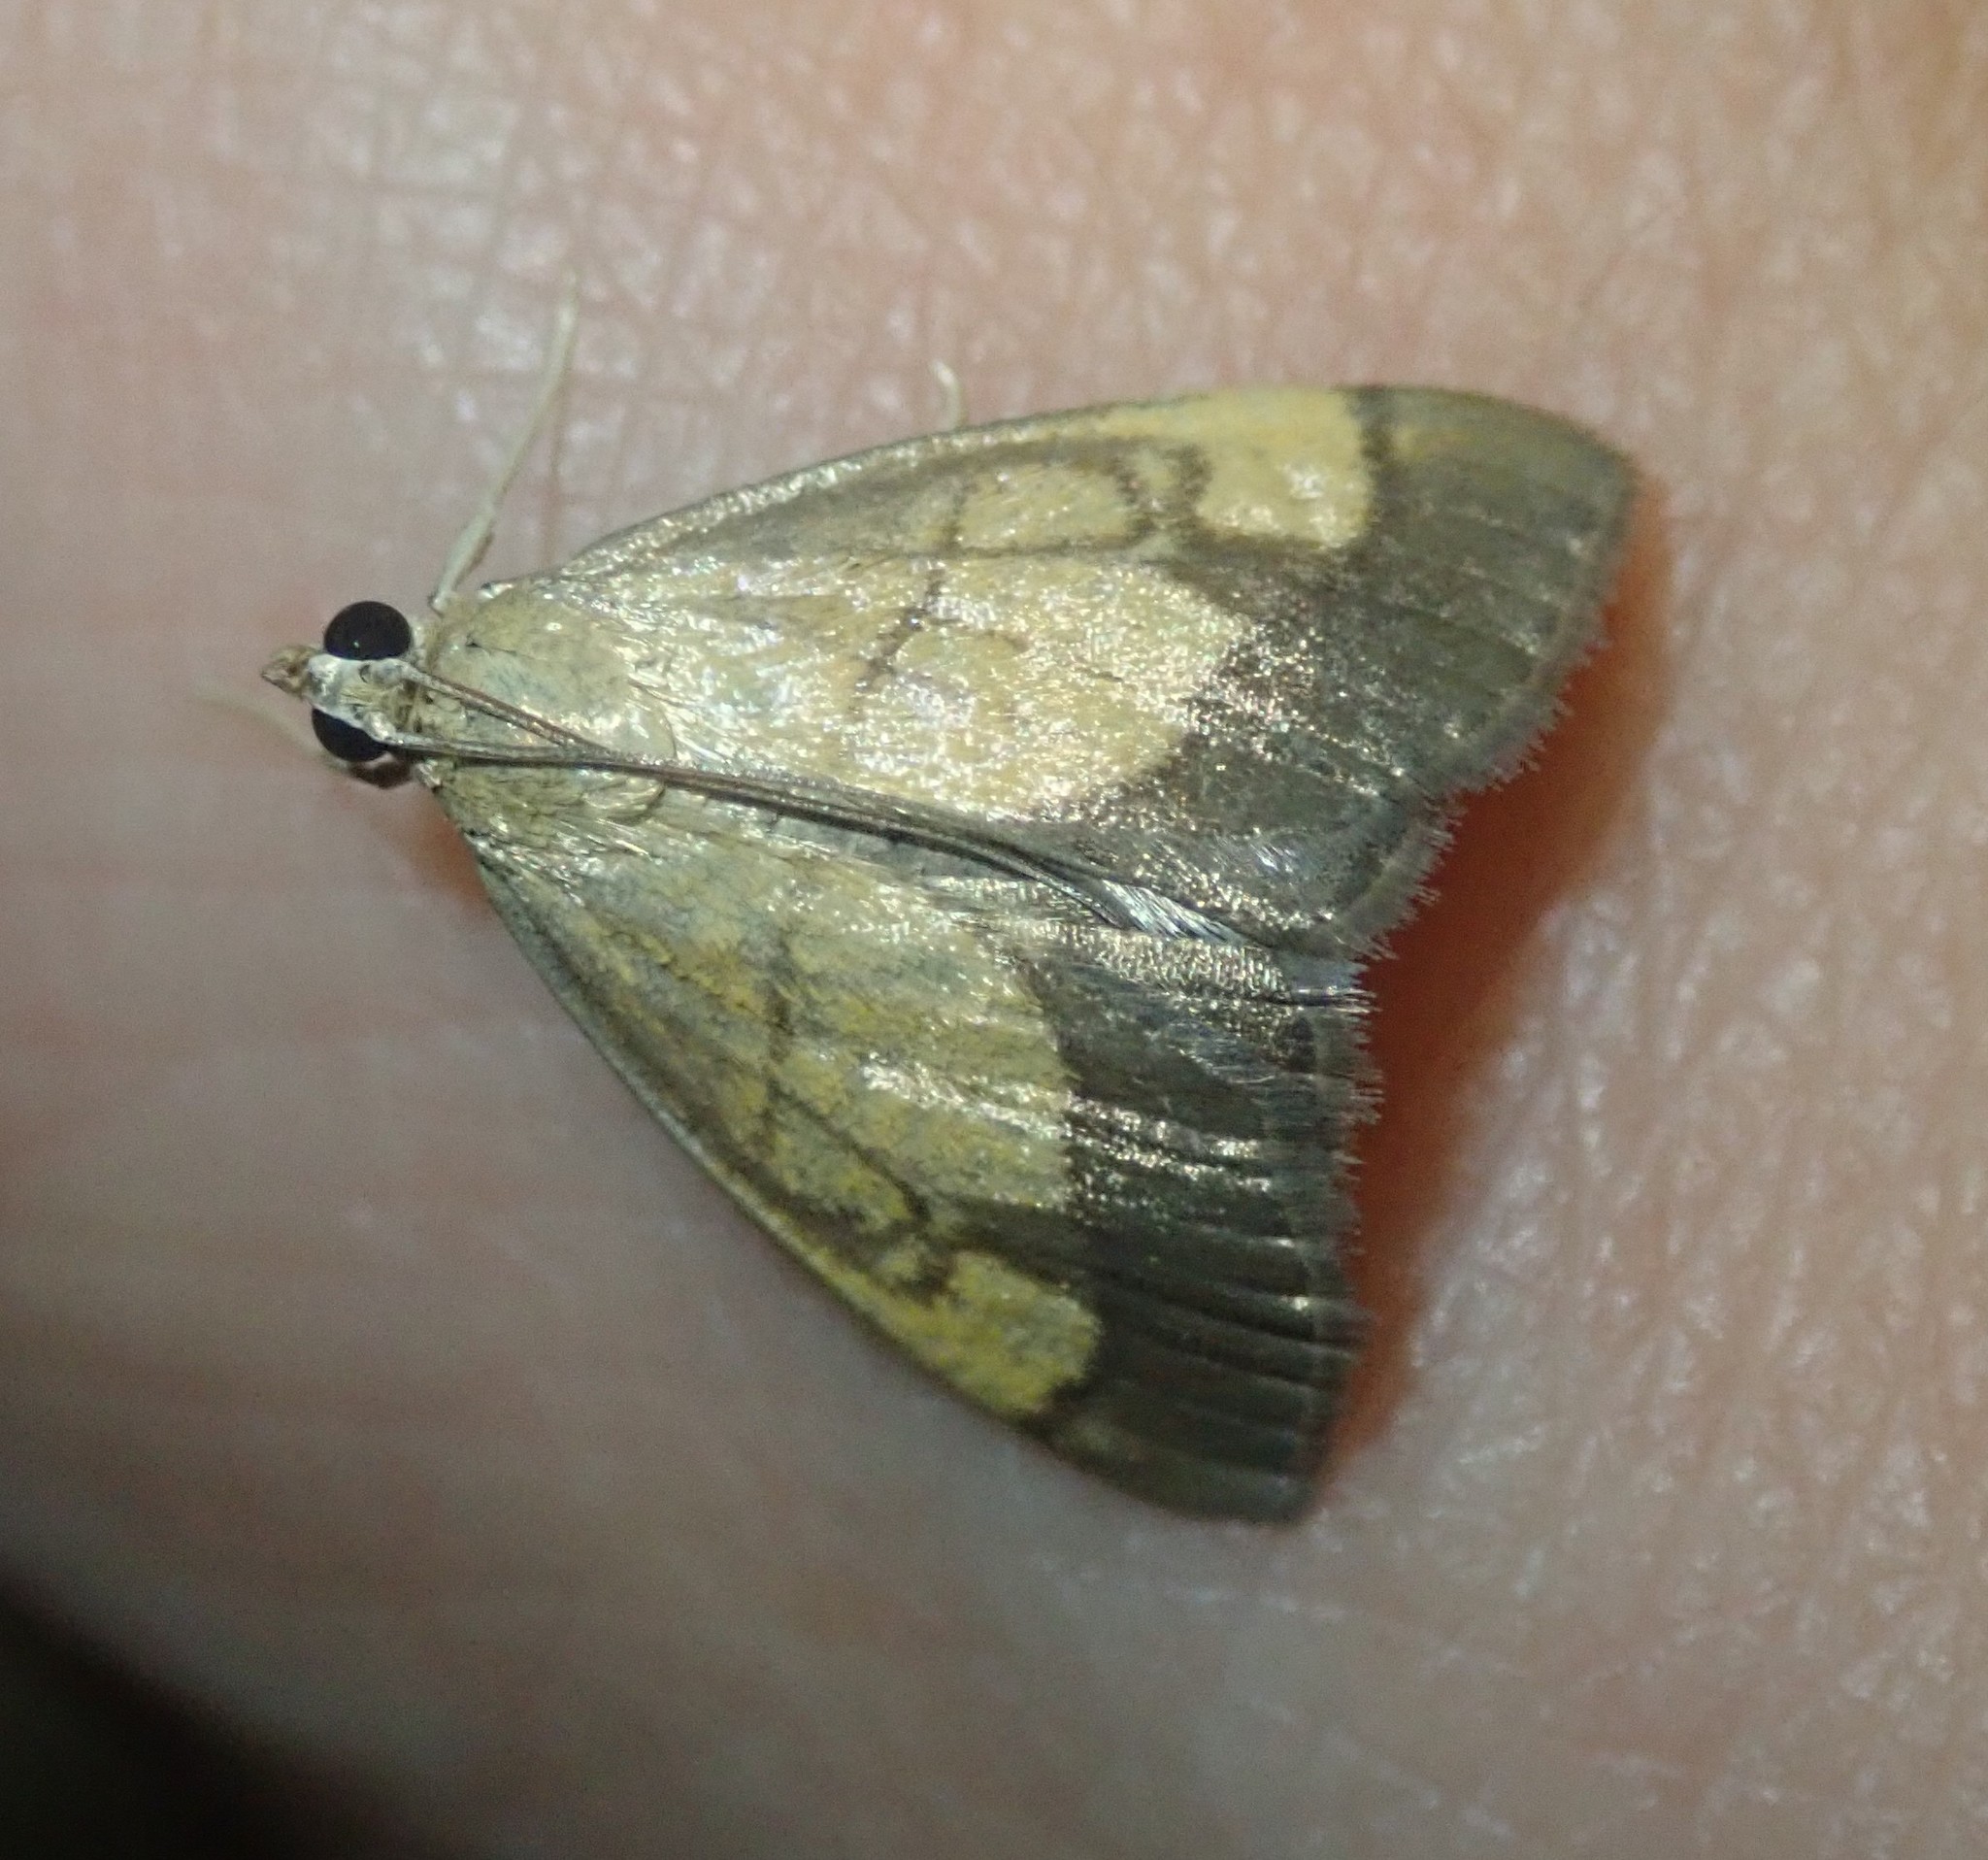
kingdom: Animalia
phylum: Arthropoda
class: Insecta
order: Lepidoptera
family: Crambidae
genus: Evergestis
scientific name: Evergestis limbata
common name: Dark bordered pearl
